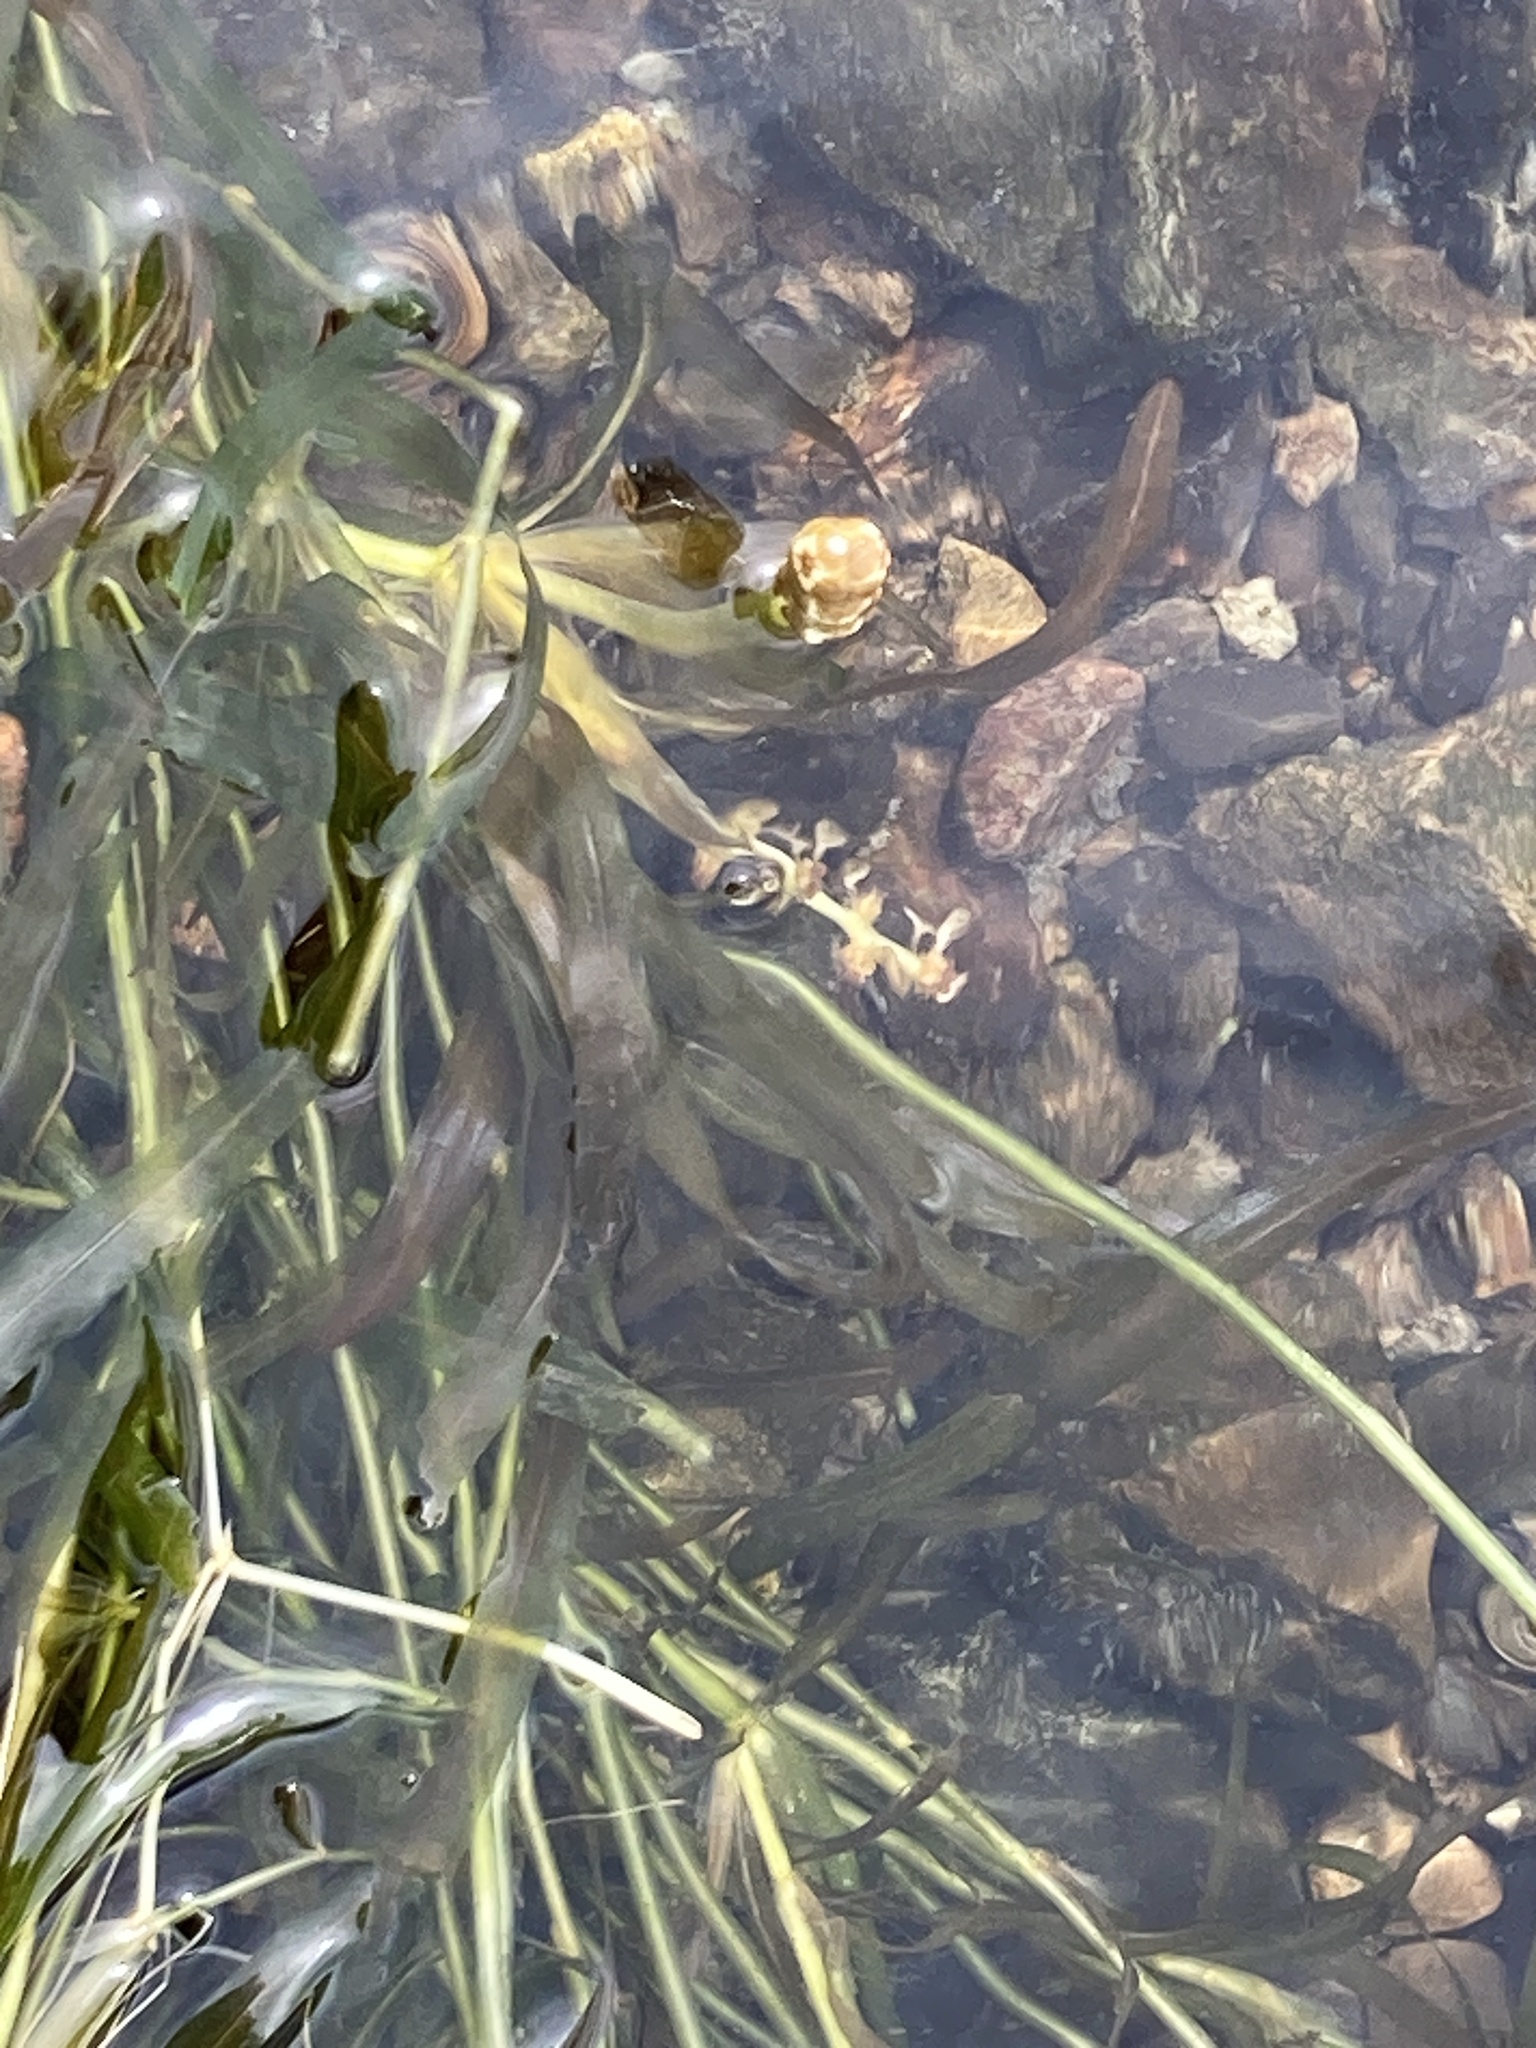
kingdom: Plantae
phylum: Tracheophyta
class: Liliopsida
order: Alismatales
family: Potamogetonaceae
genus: Potamogeton
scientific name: Potamogeton ochreatus
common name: Blunt pondweed
